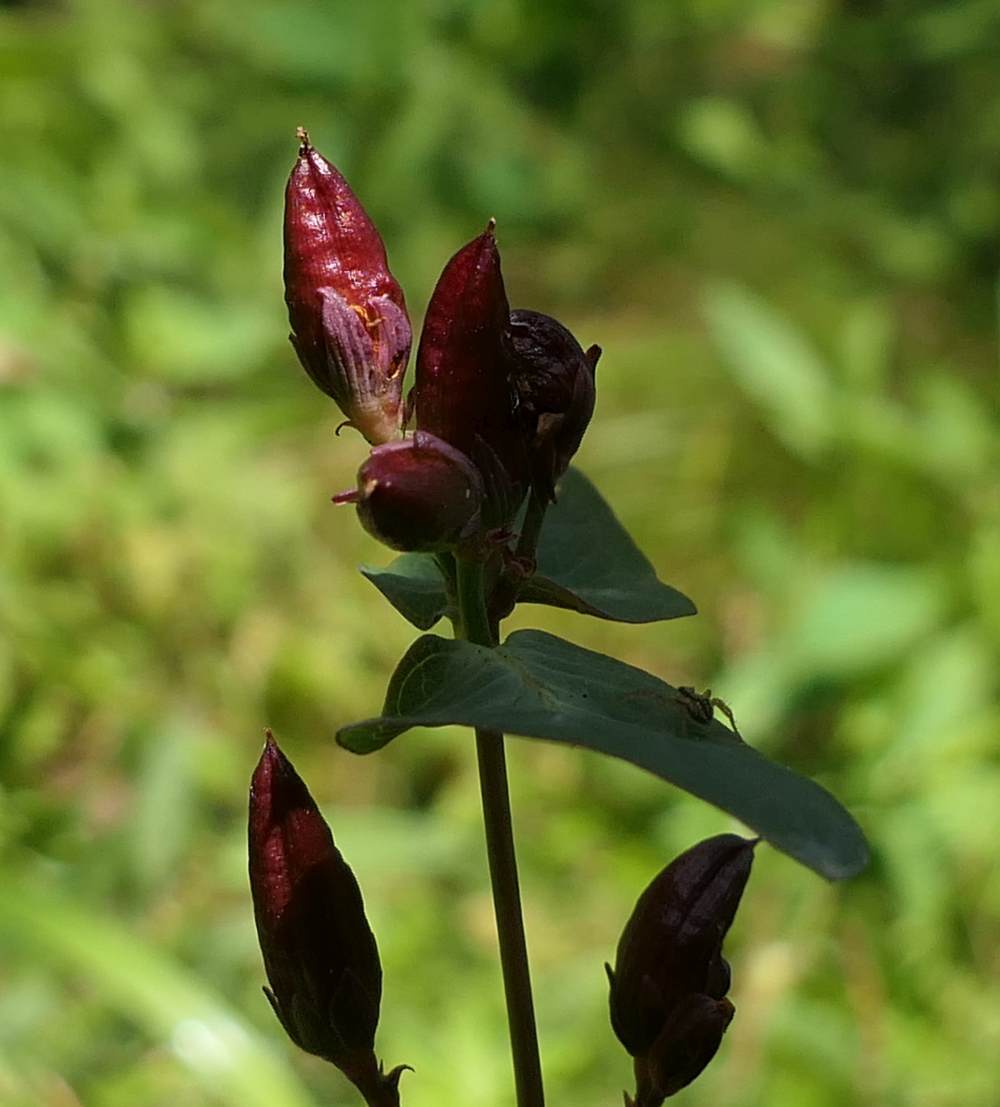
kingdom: Plantae
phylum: Tracheophyta
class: Magnoliopsida
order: Malpighiales
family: Hypericaceae
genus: Triadenum
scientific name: Triadenum fraseri
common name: Fraser's marsh st. johnswort
